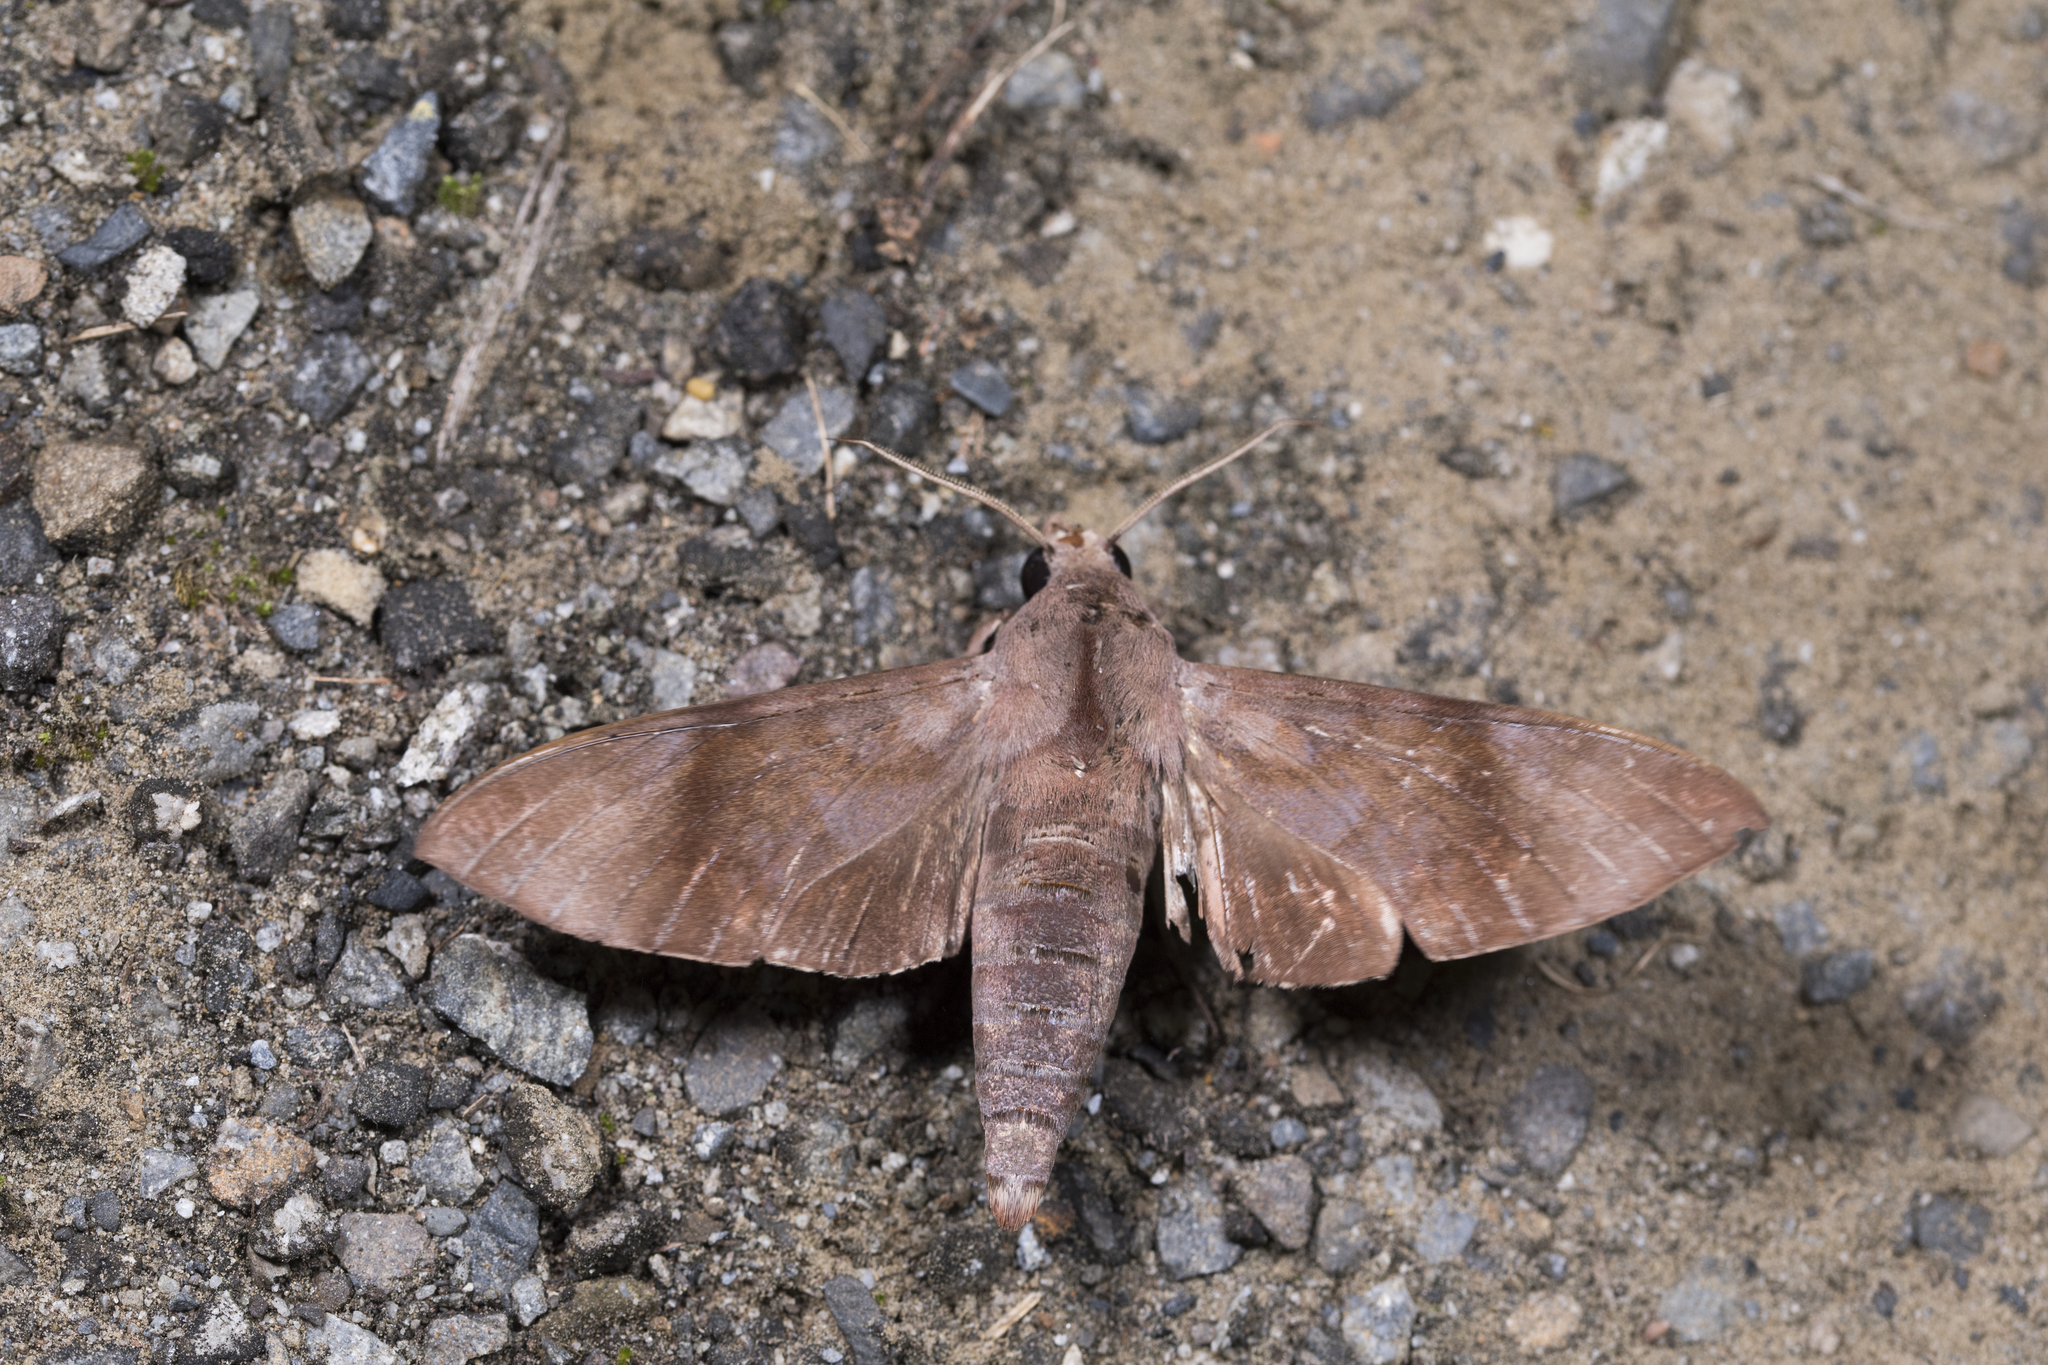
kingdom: Animalia
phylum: Arthropoda
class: Insecta
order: Lepidoptera
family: Sphingidae
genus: Acosmeryx
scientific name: Acosmeryx formosana
